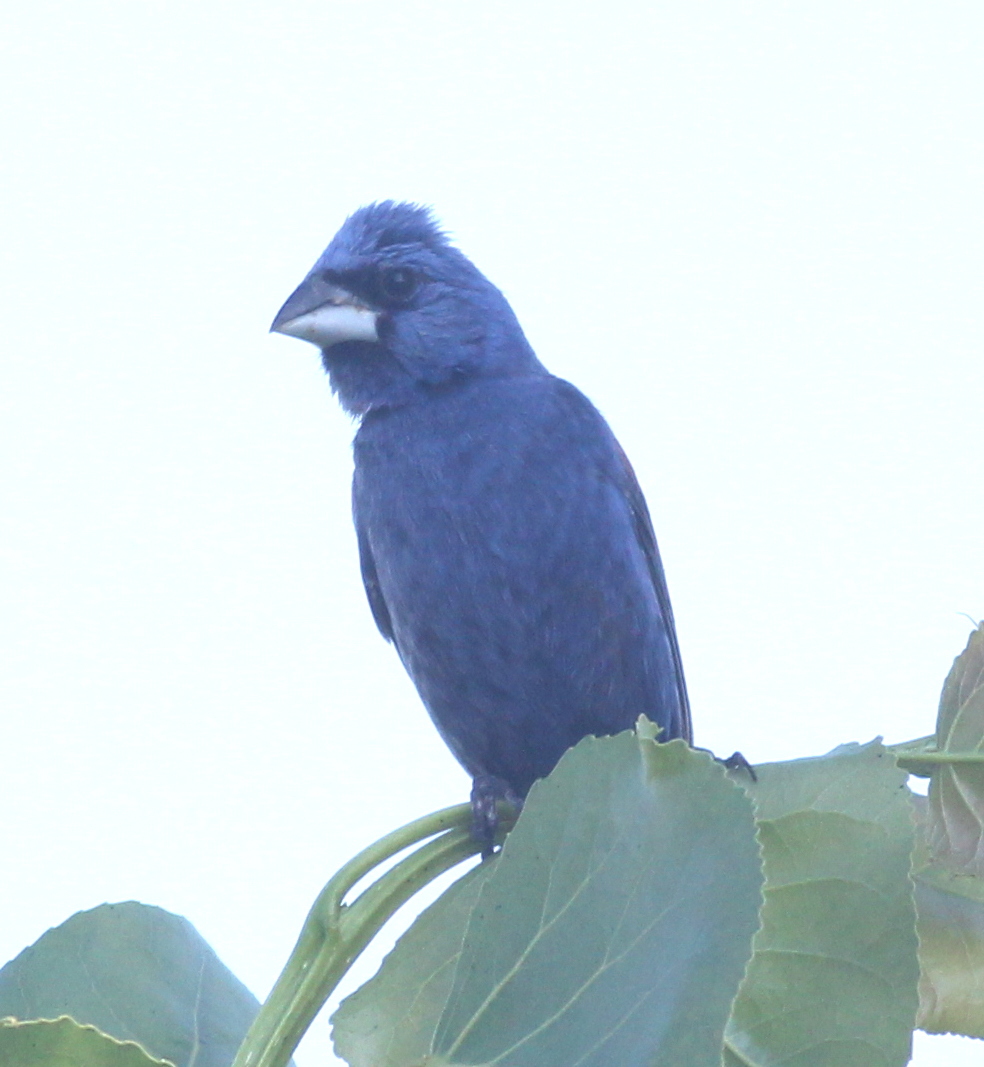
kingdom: Animalia
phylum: Chordata
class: Aves
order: Passeriformes
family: Cardinalidae
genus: Passerina
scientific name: Passerina caerulea
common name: Blue grosbeak
